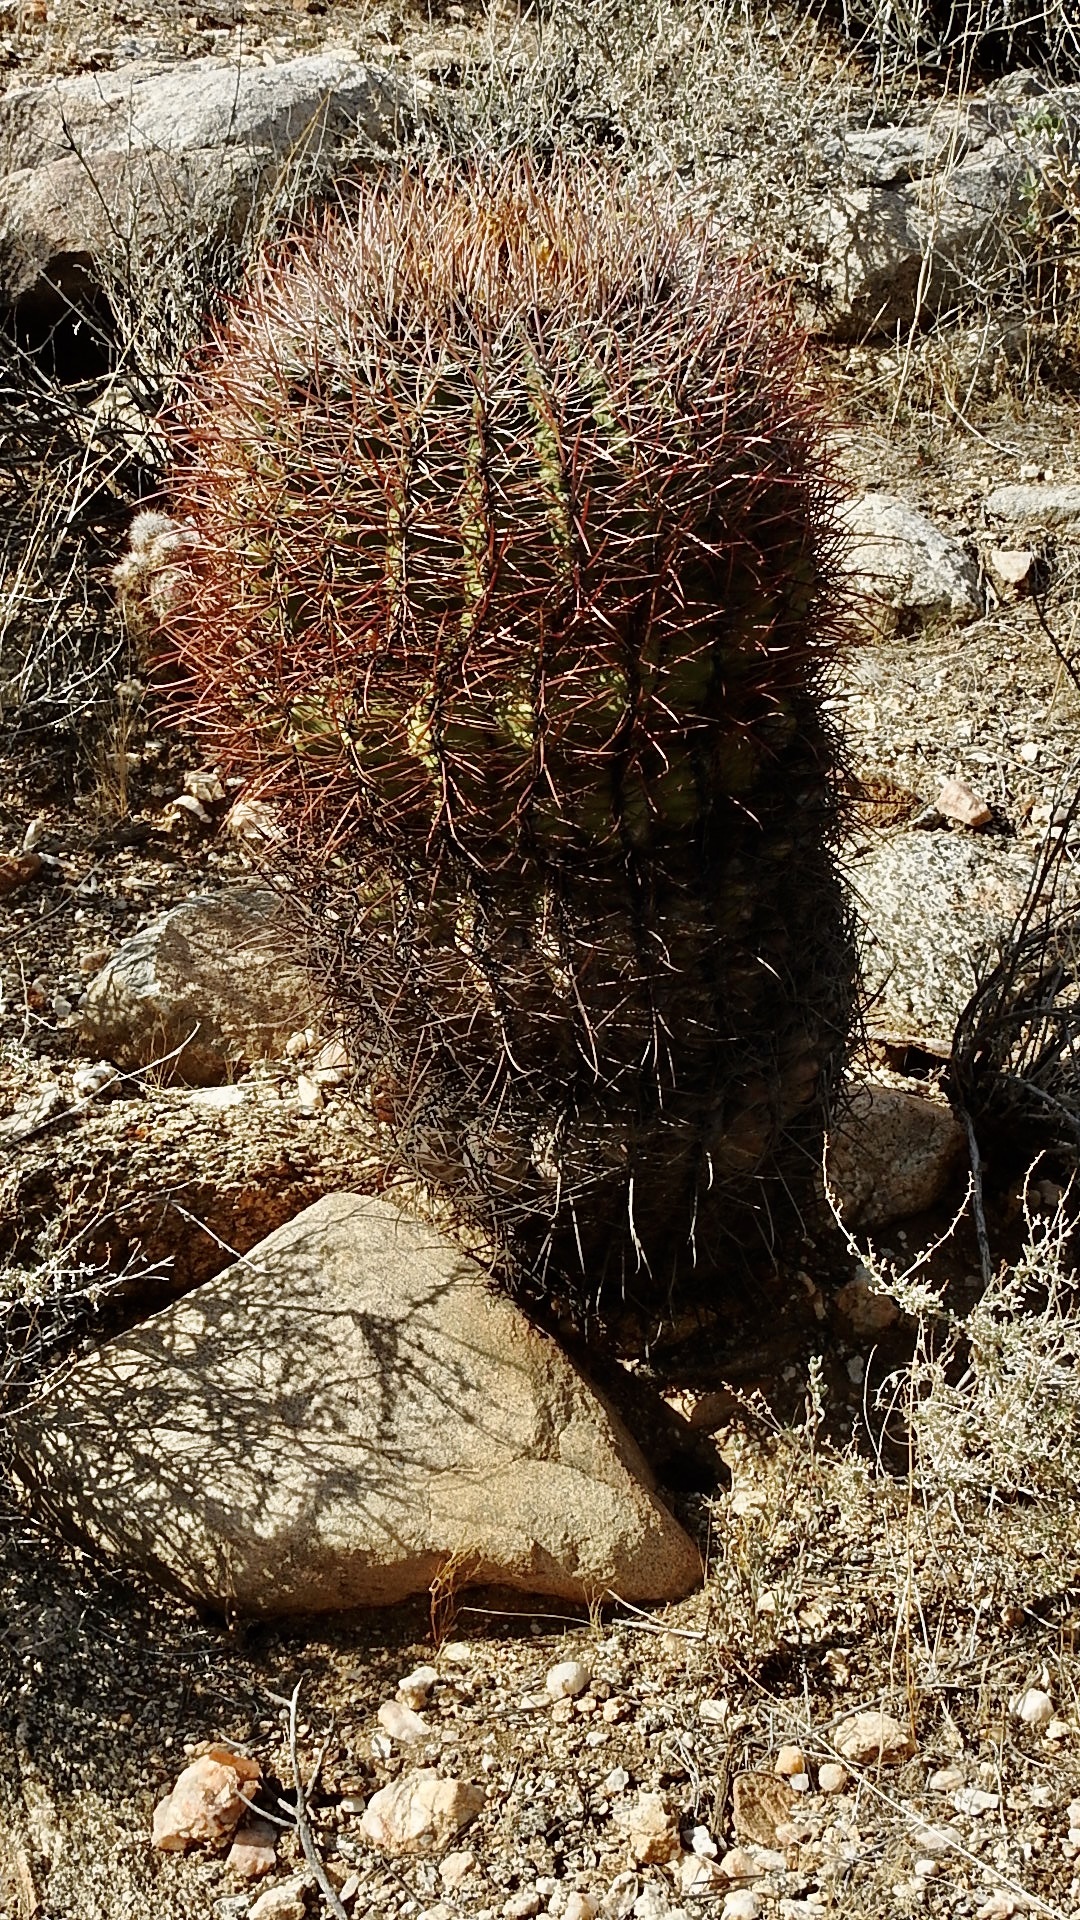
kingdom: Plantae
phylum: Tracheophyta
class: Magnoliopsida
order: Caryophyllales
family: Cactaceae
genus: Ferocactus
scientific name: Ferocactus cylindraceus
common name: California barrel cactus
